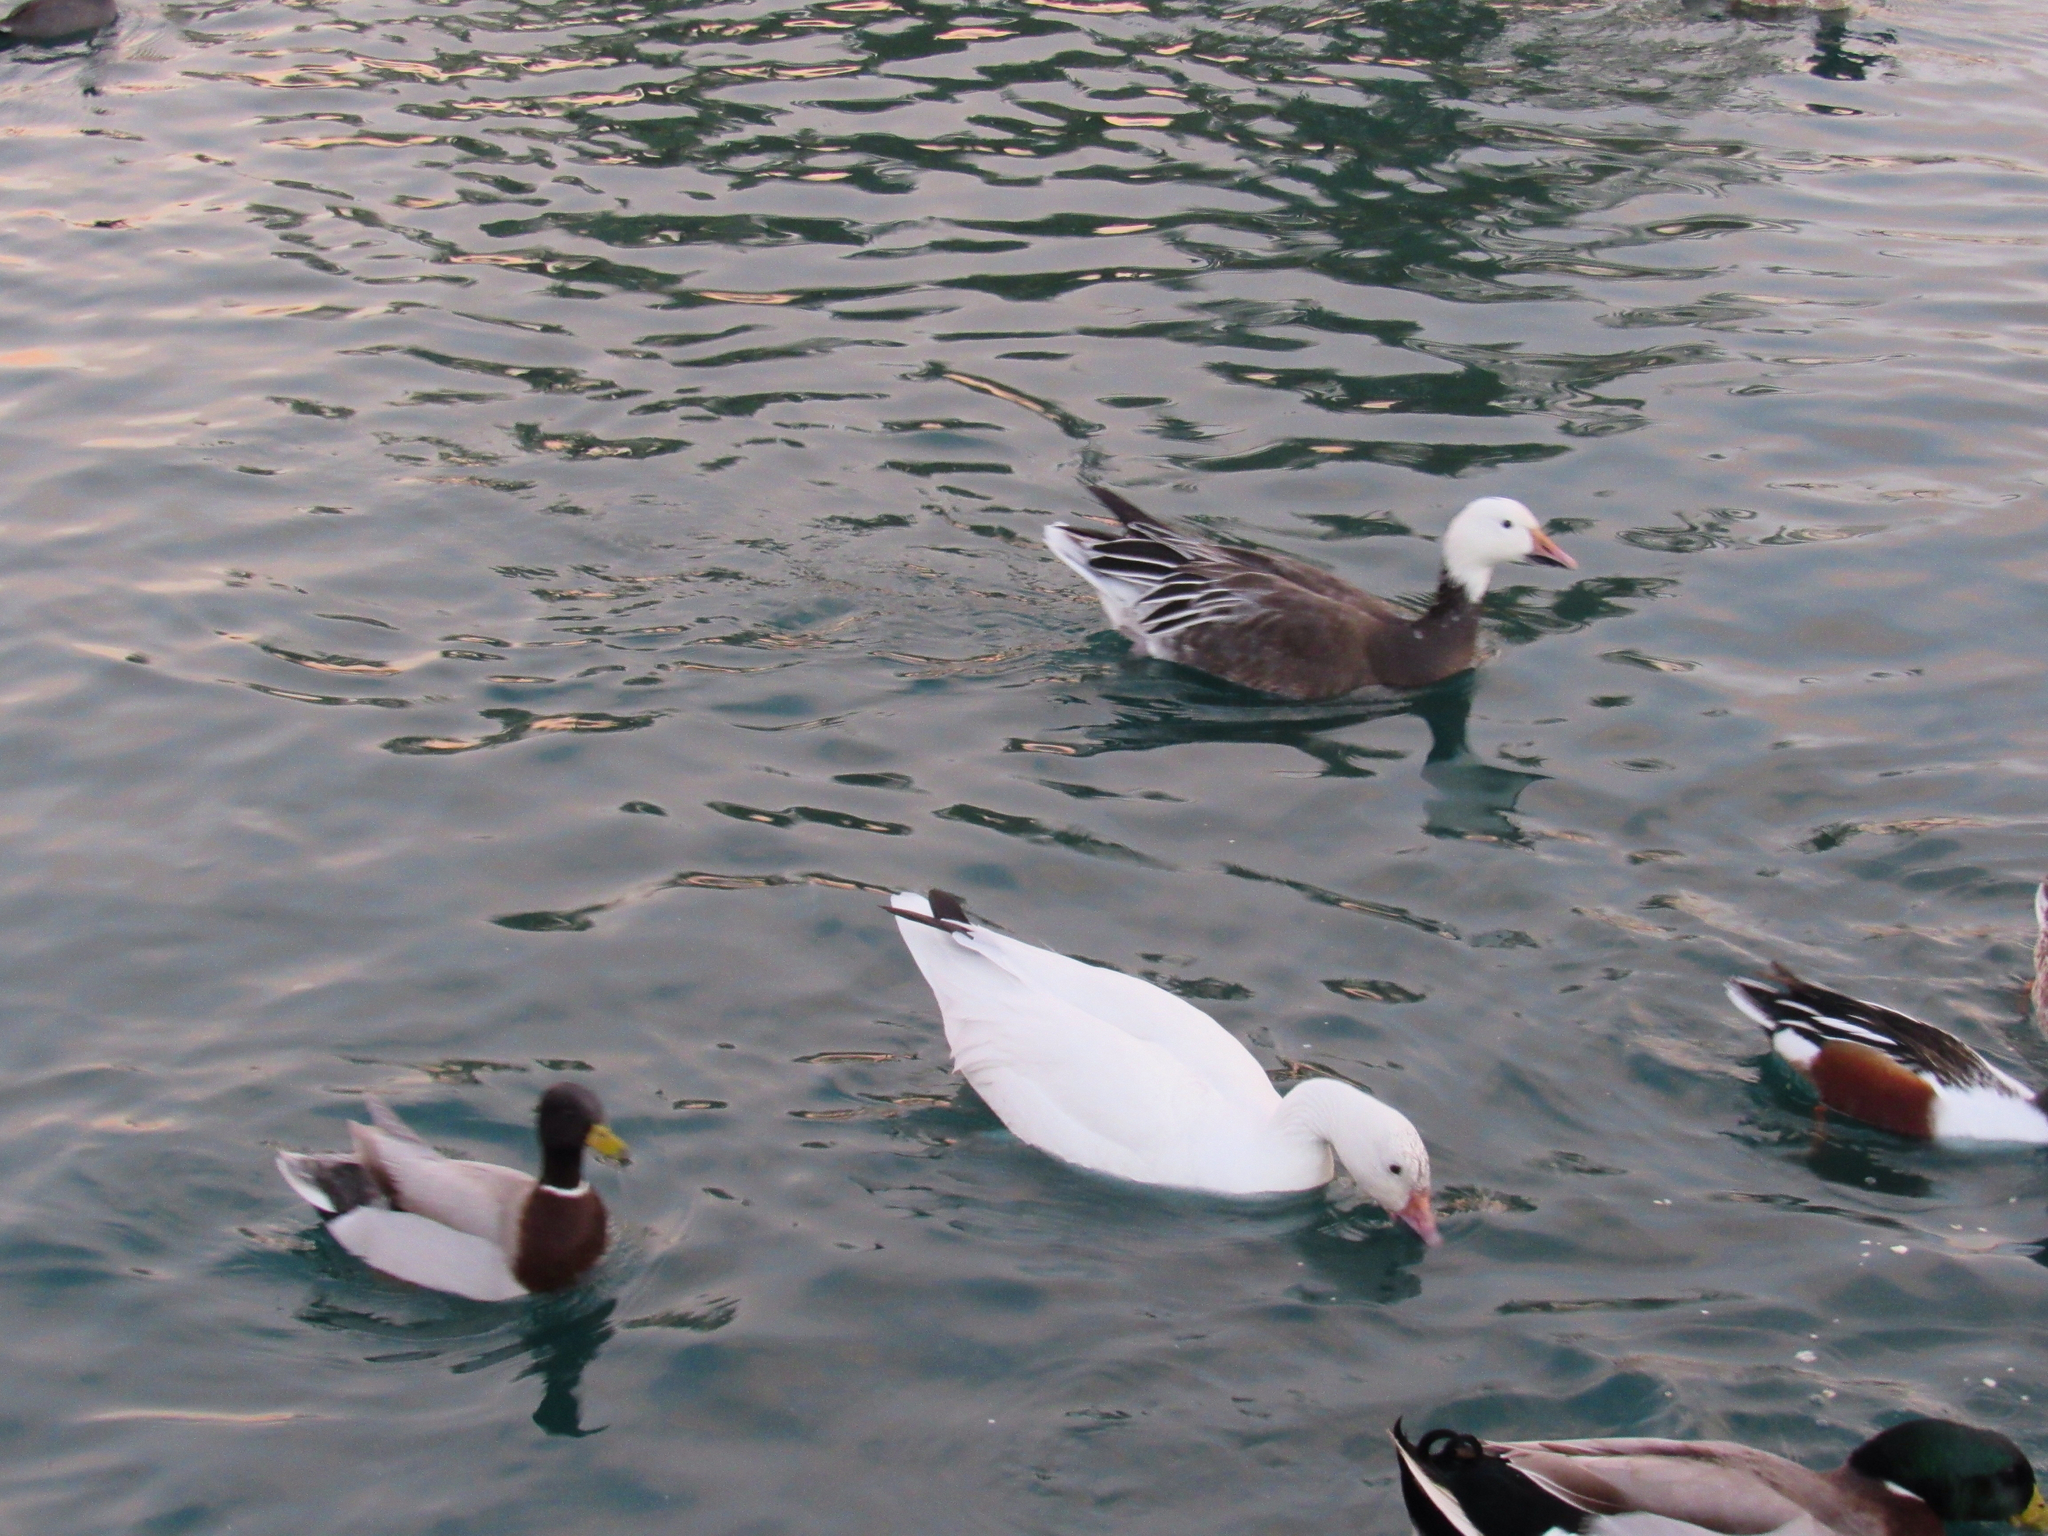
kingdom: Animalia
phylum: Chordata
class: Aves
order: Anseriformes
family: Anatidae
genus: Anas
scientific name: Anas platyrhynchos
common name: Mallard
